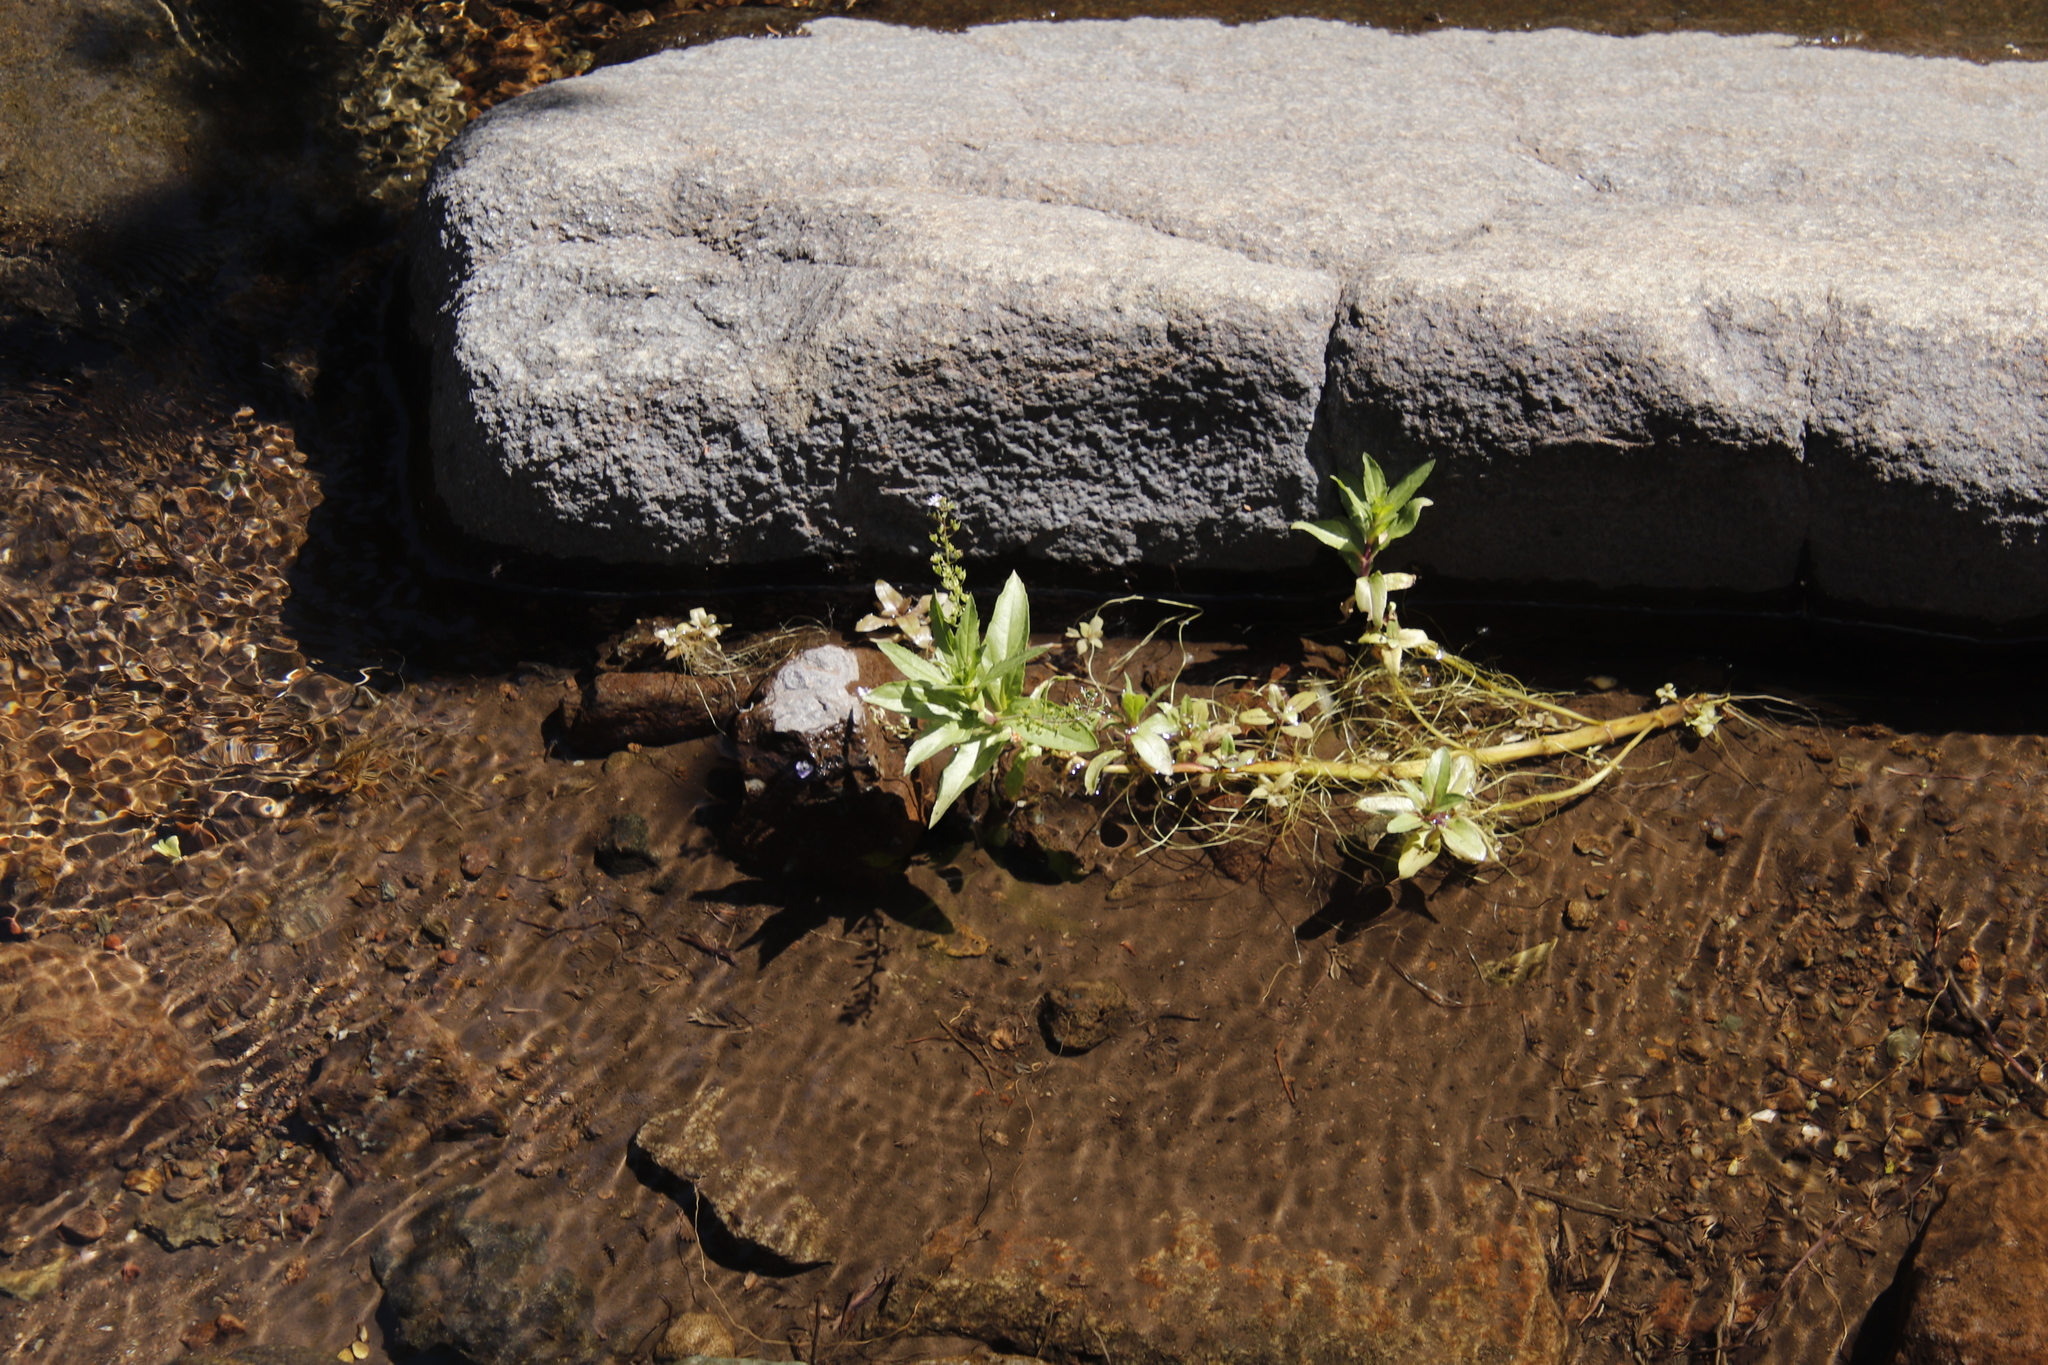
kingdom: Plantae
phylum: Tracheophyta
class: Magnoliopsida
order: Lamiales
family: Plantaginaceae
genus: Veronica
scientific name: Veronica anagallis-aquatica
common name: Water speedwell
